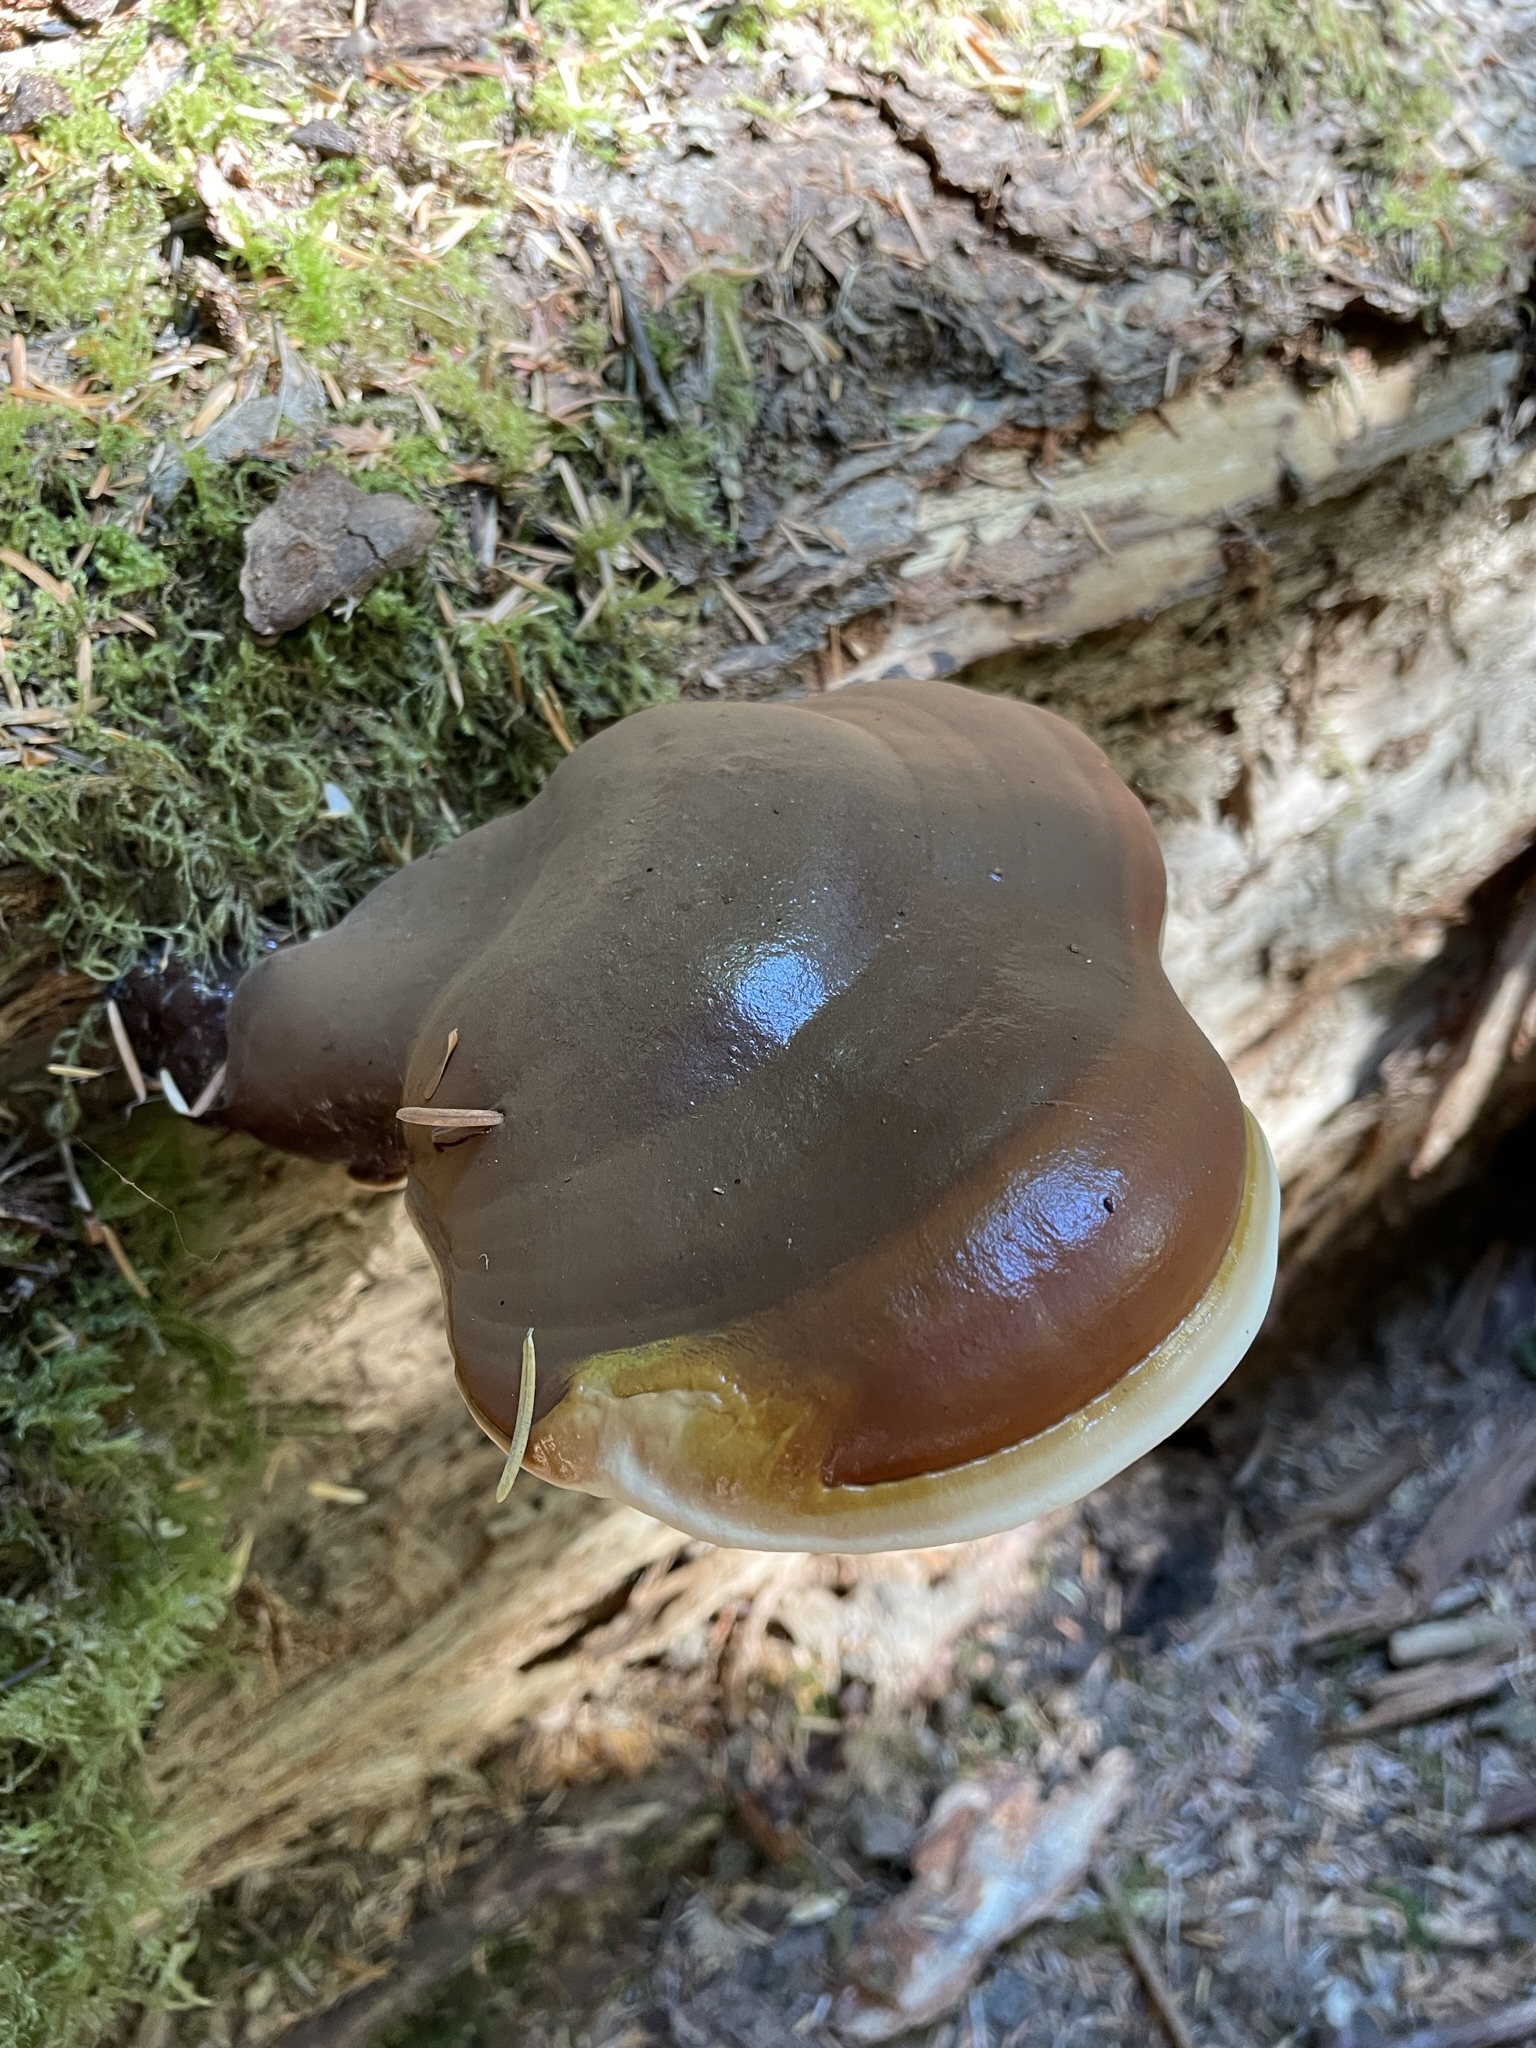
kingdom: Fungi
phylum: Basidiomycota
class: Agaricomycetes
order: Polyporales
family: Polyporaceae
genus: Ganoderma
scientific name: Ganoderma oregonense
